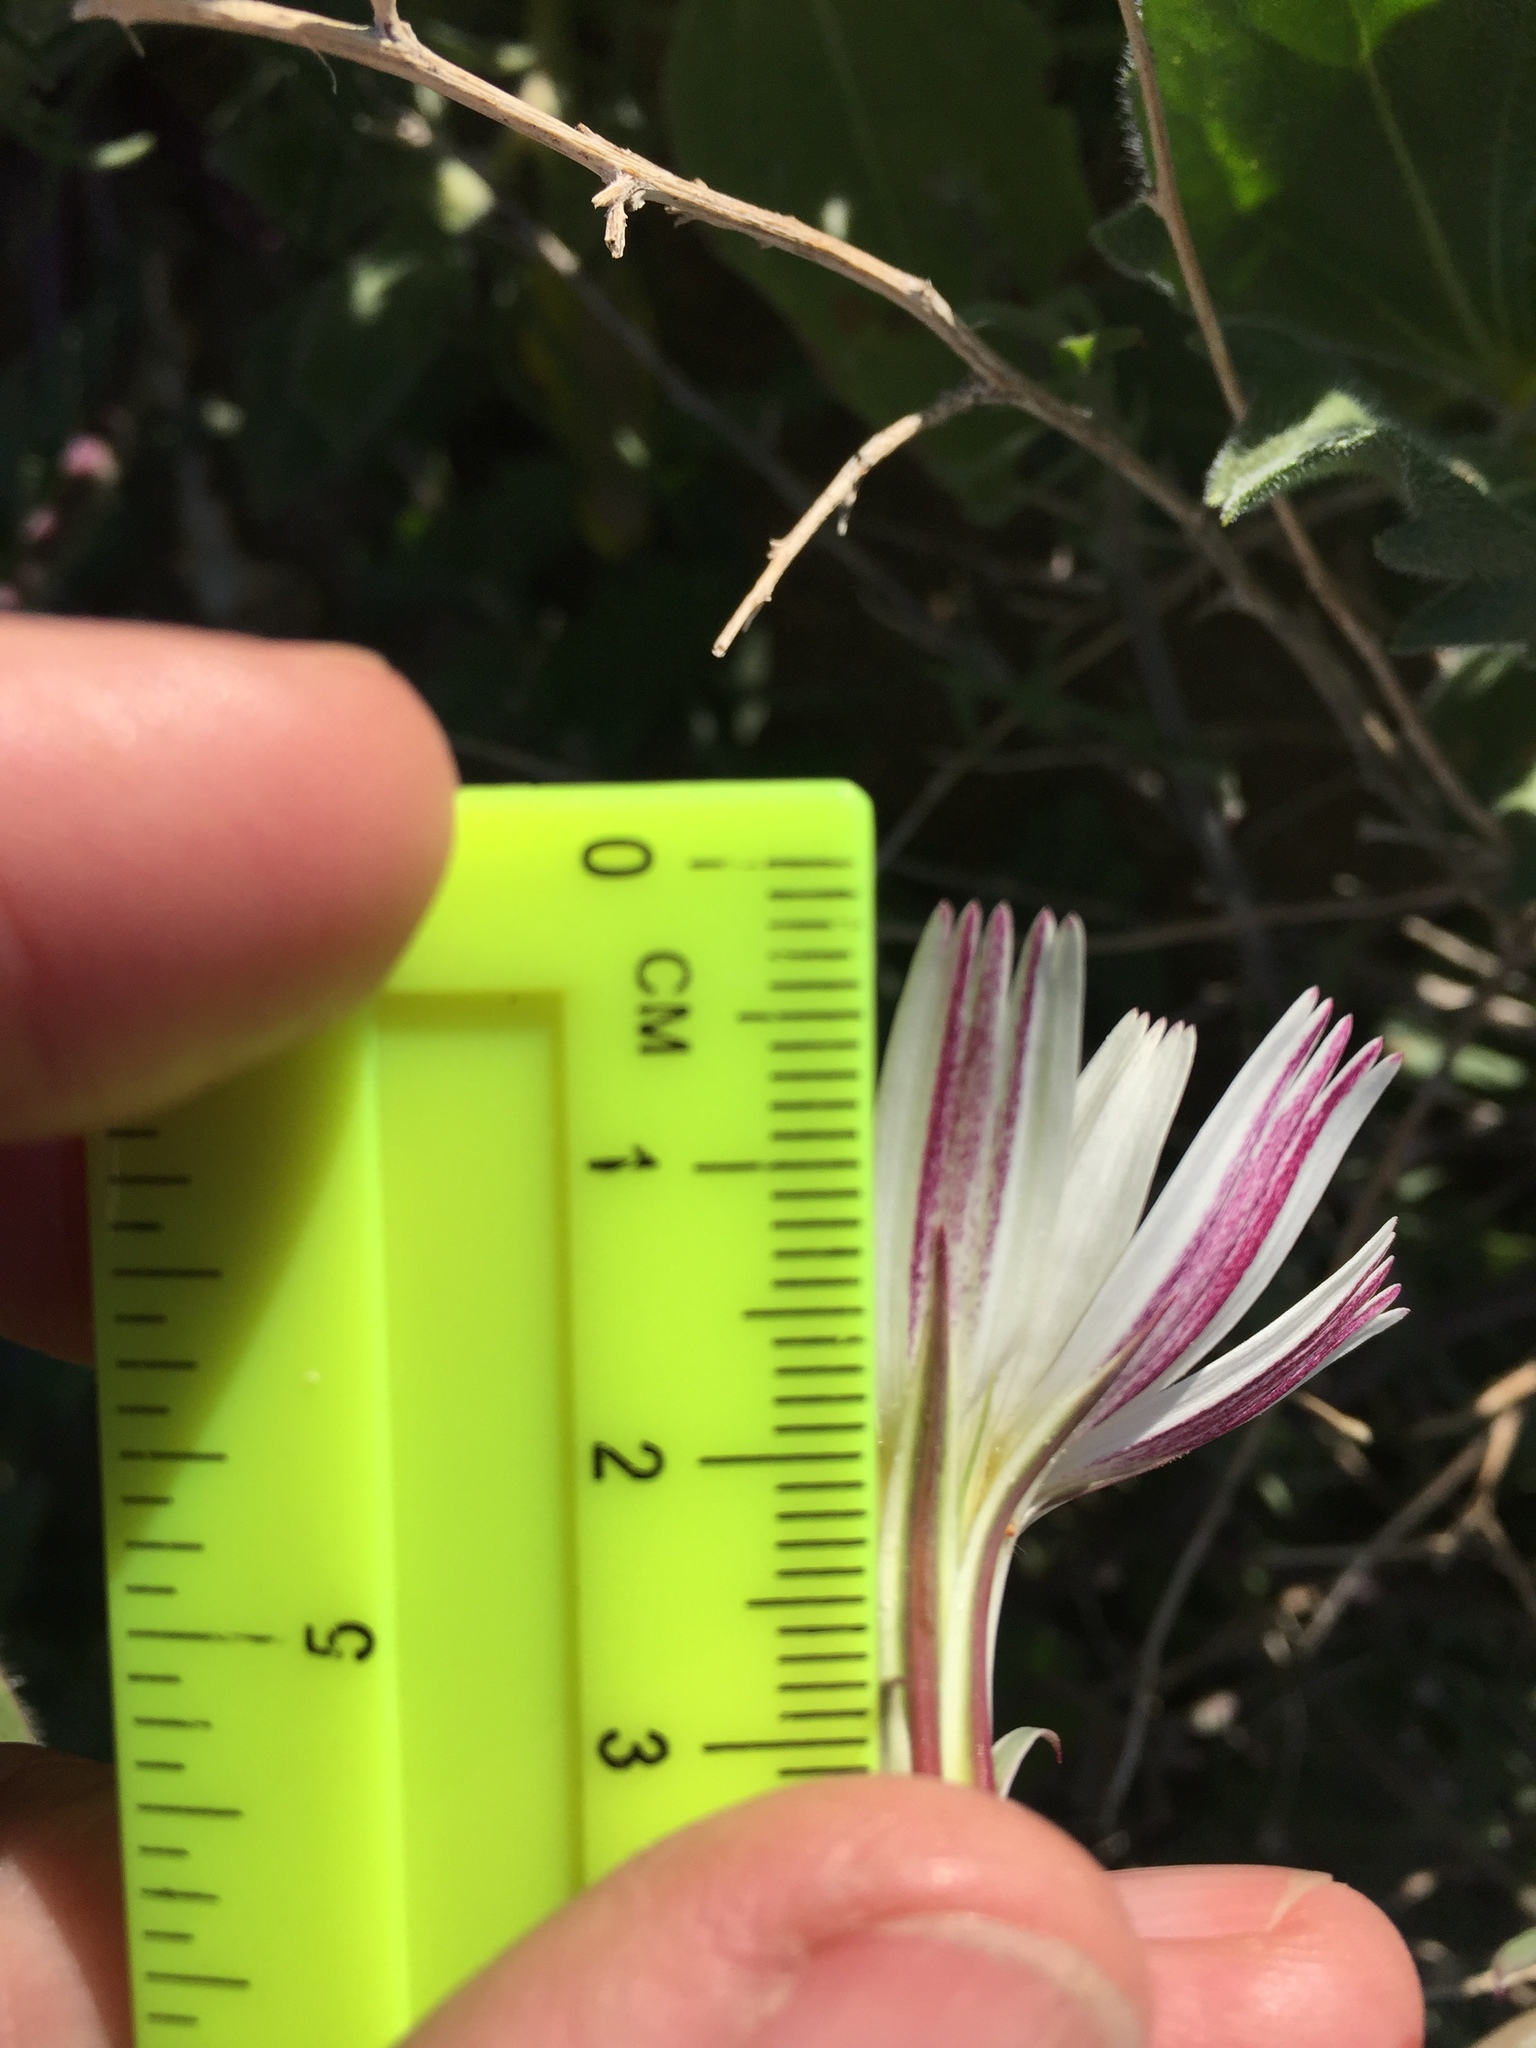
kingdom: Plantae
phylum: Tracheophyta
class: Magnoliopsida
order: Asterales
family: Asteraceae
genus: Rafinesquia
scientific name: Rafinesquia neomexicana
